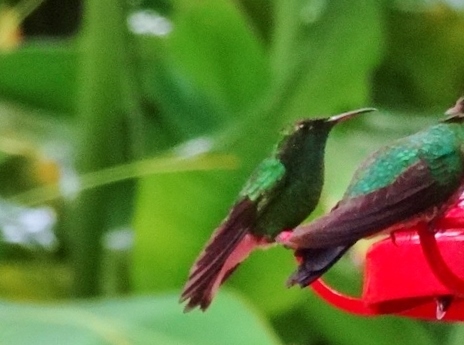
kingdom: Animalia
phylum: Chordata
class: Aves
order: Apodiformes
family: Trochilidae
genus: Amazilia
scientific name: Amazilia tzacatl
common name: Rufous-tailed hummingbird
